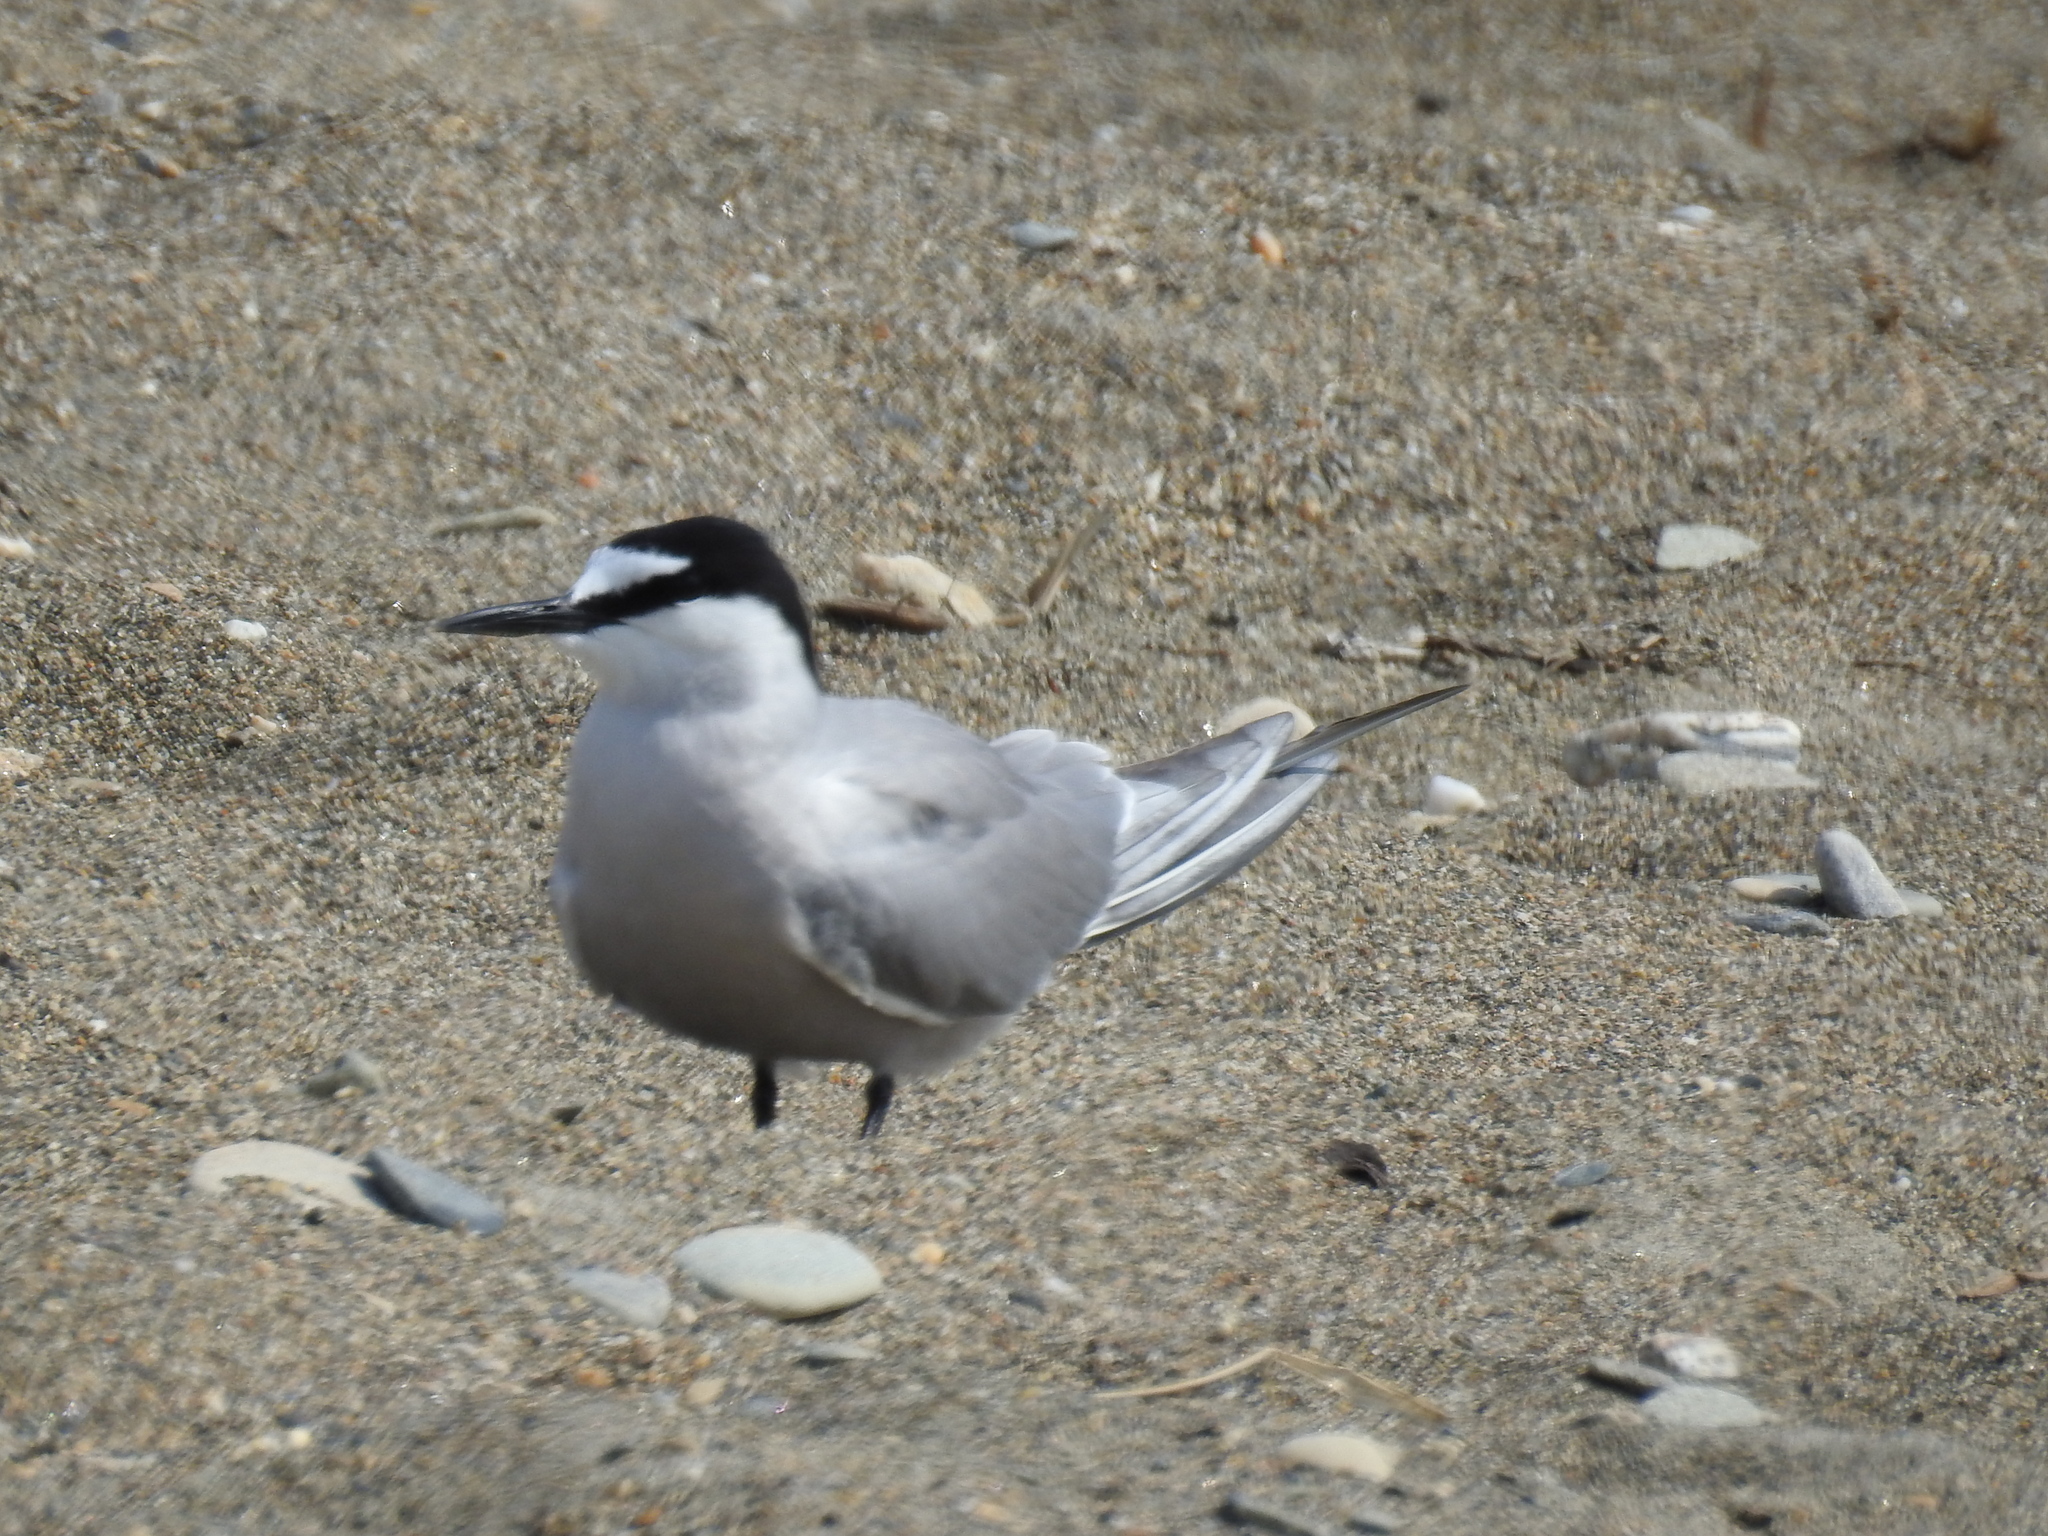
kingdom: Animalia
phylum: Chordata
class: Aves
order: Charadriiformes
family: Laridae
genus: Onychoprion
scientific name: Onychoprion aleuticus
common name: Aleutian tern
